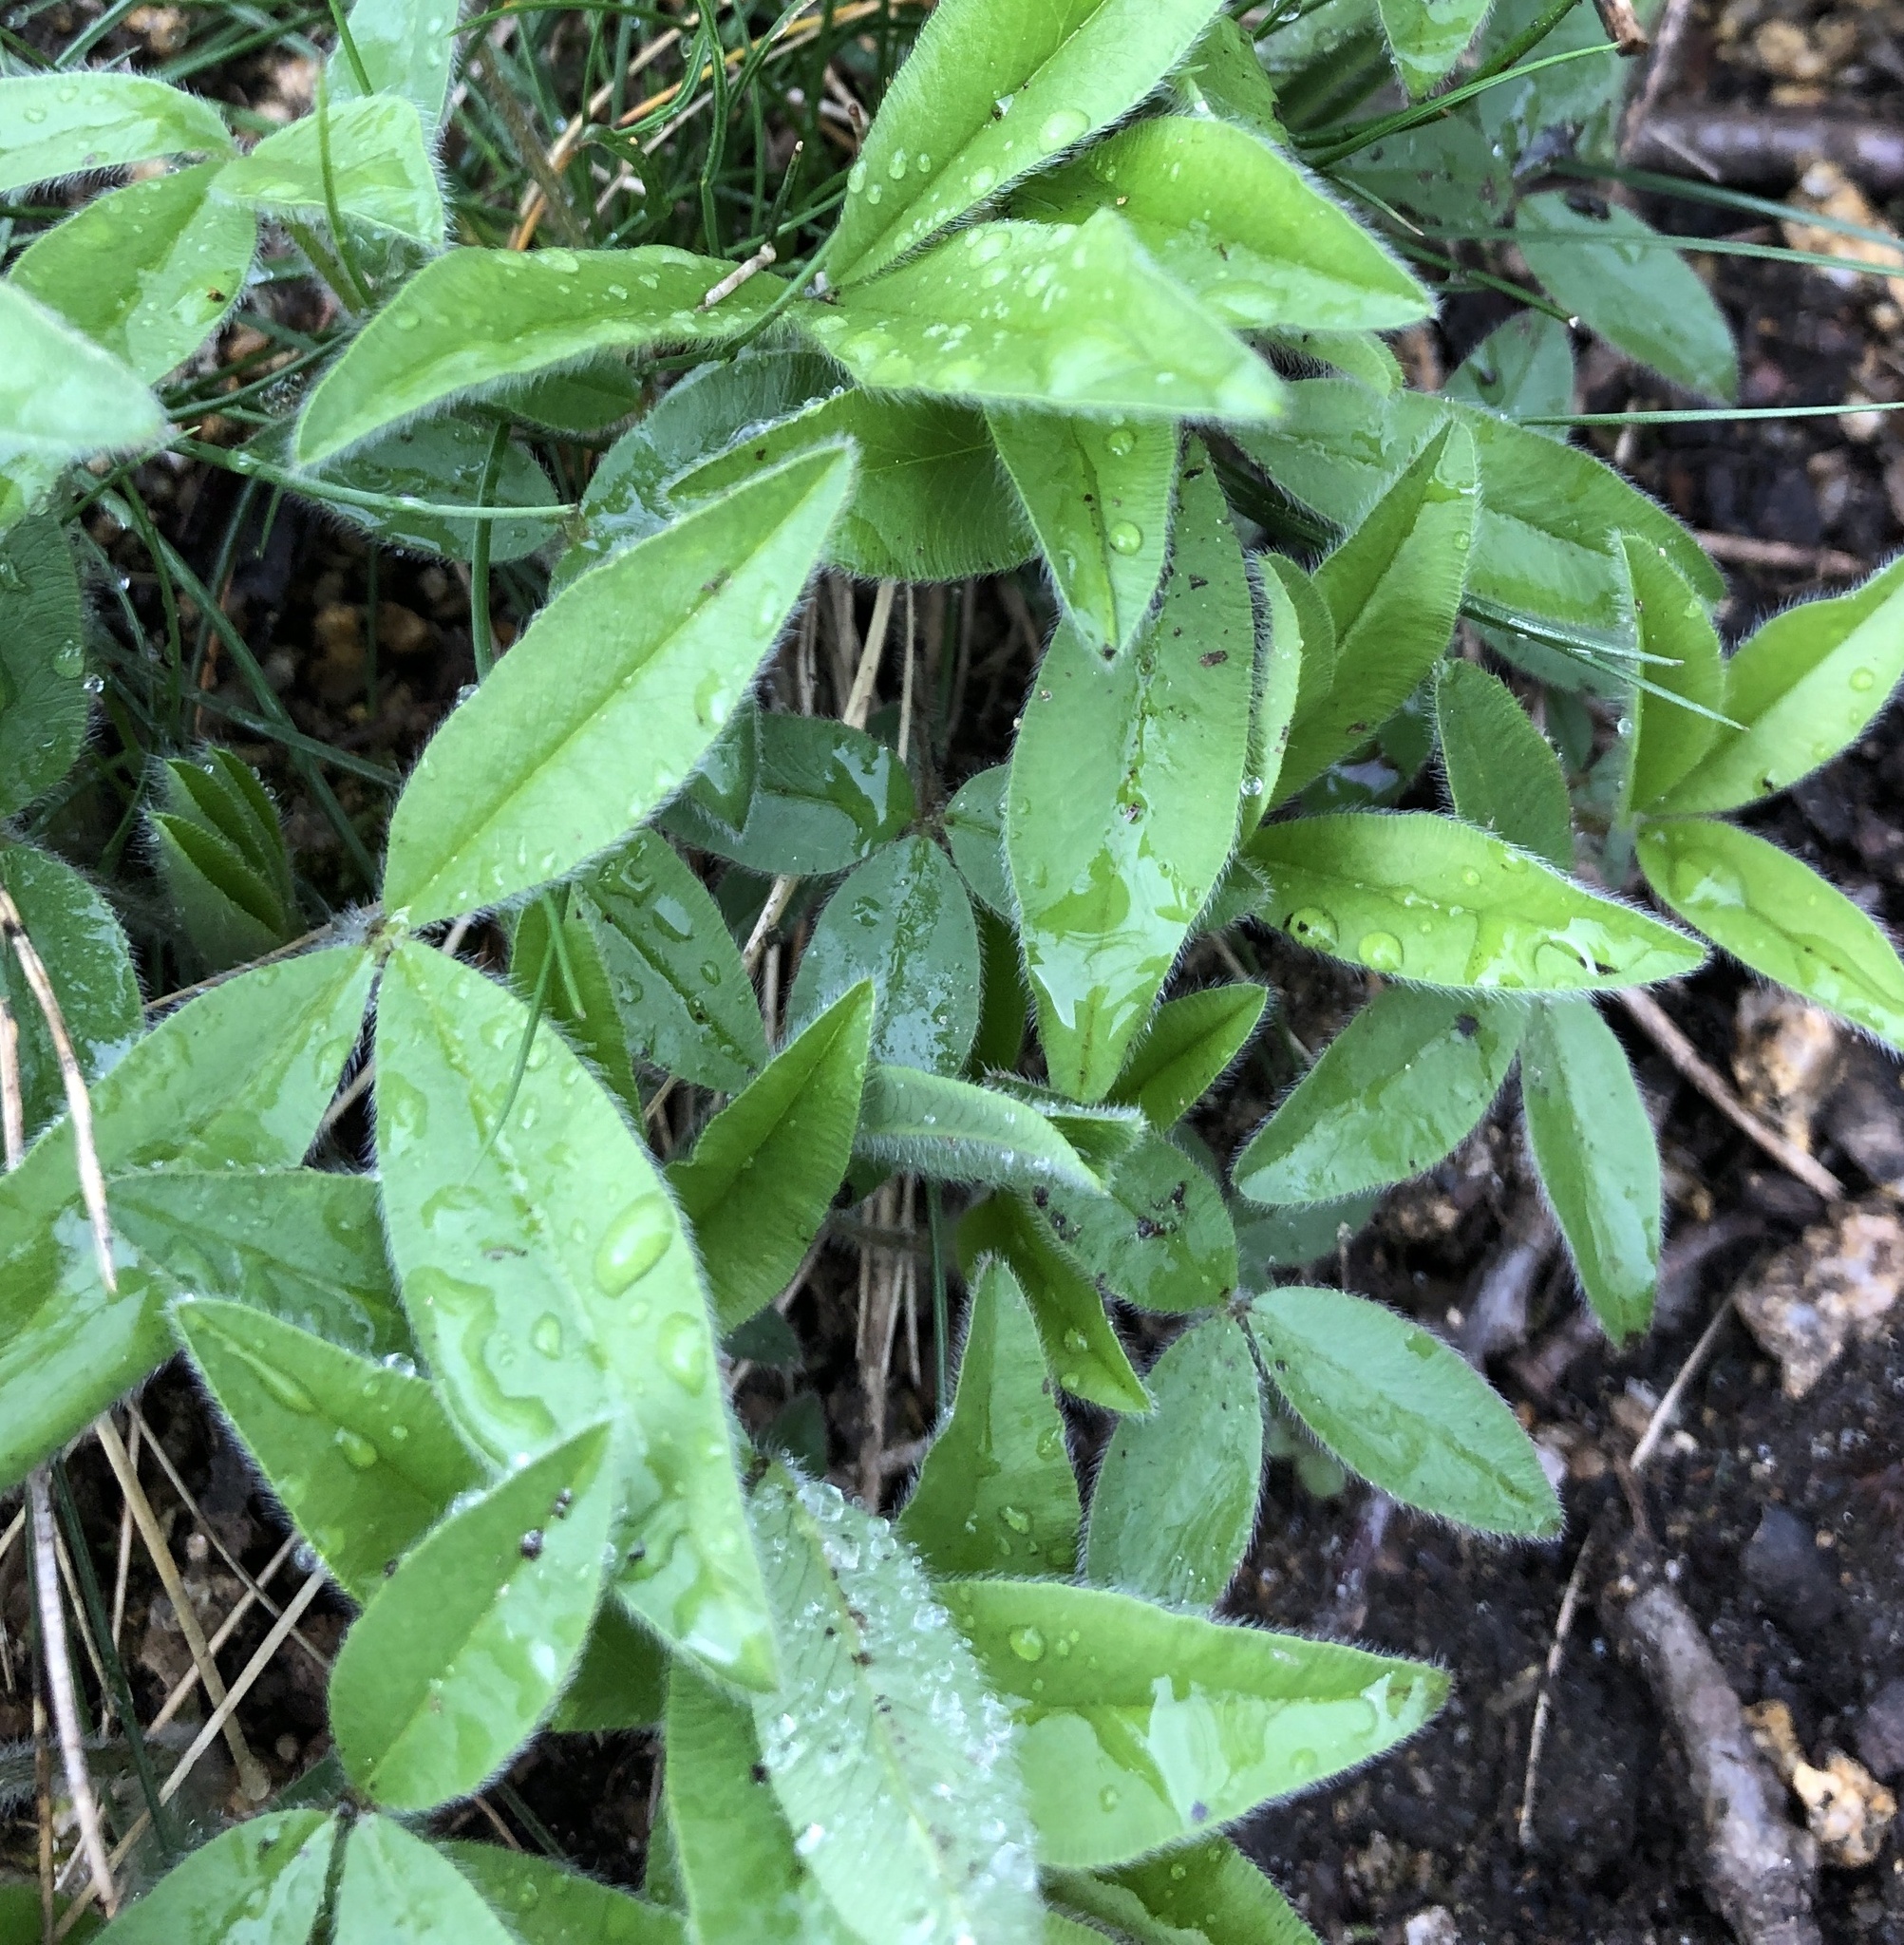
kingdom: Plantae
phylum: Tracheophyta
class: Magnoliopsida
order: Fabales
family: Fabaceae
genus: Trifolium
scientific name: Trifolium alpestre
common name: Owl-head clover
